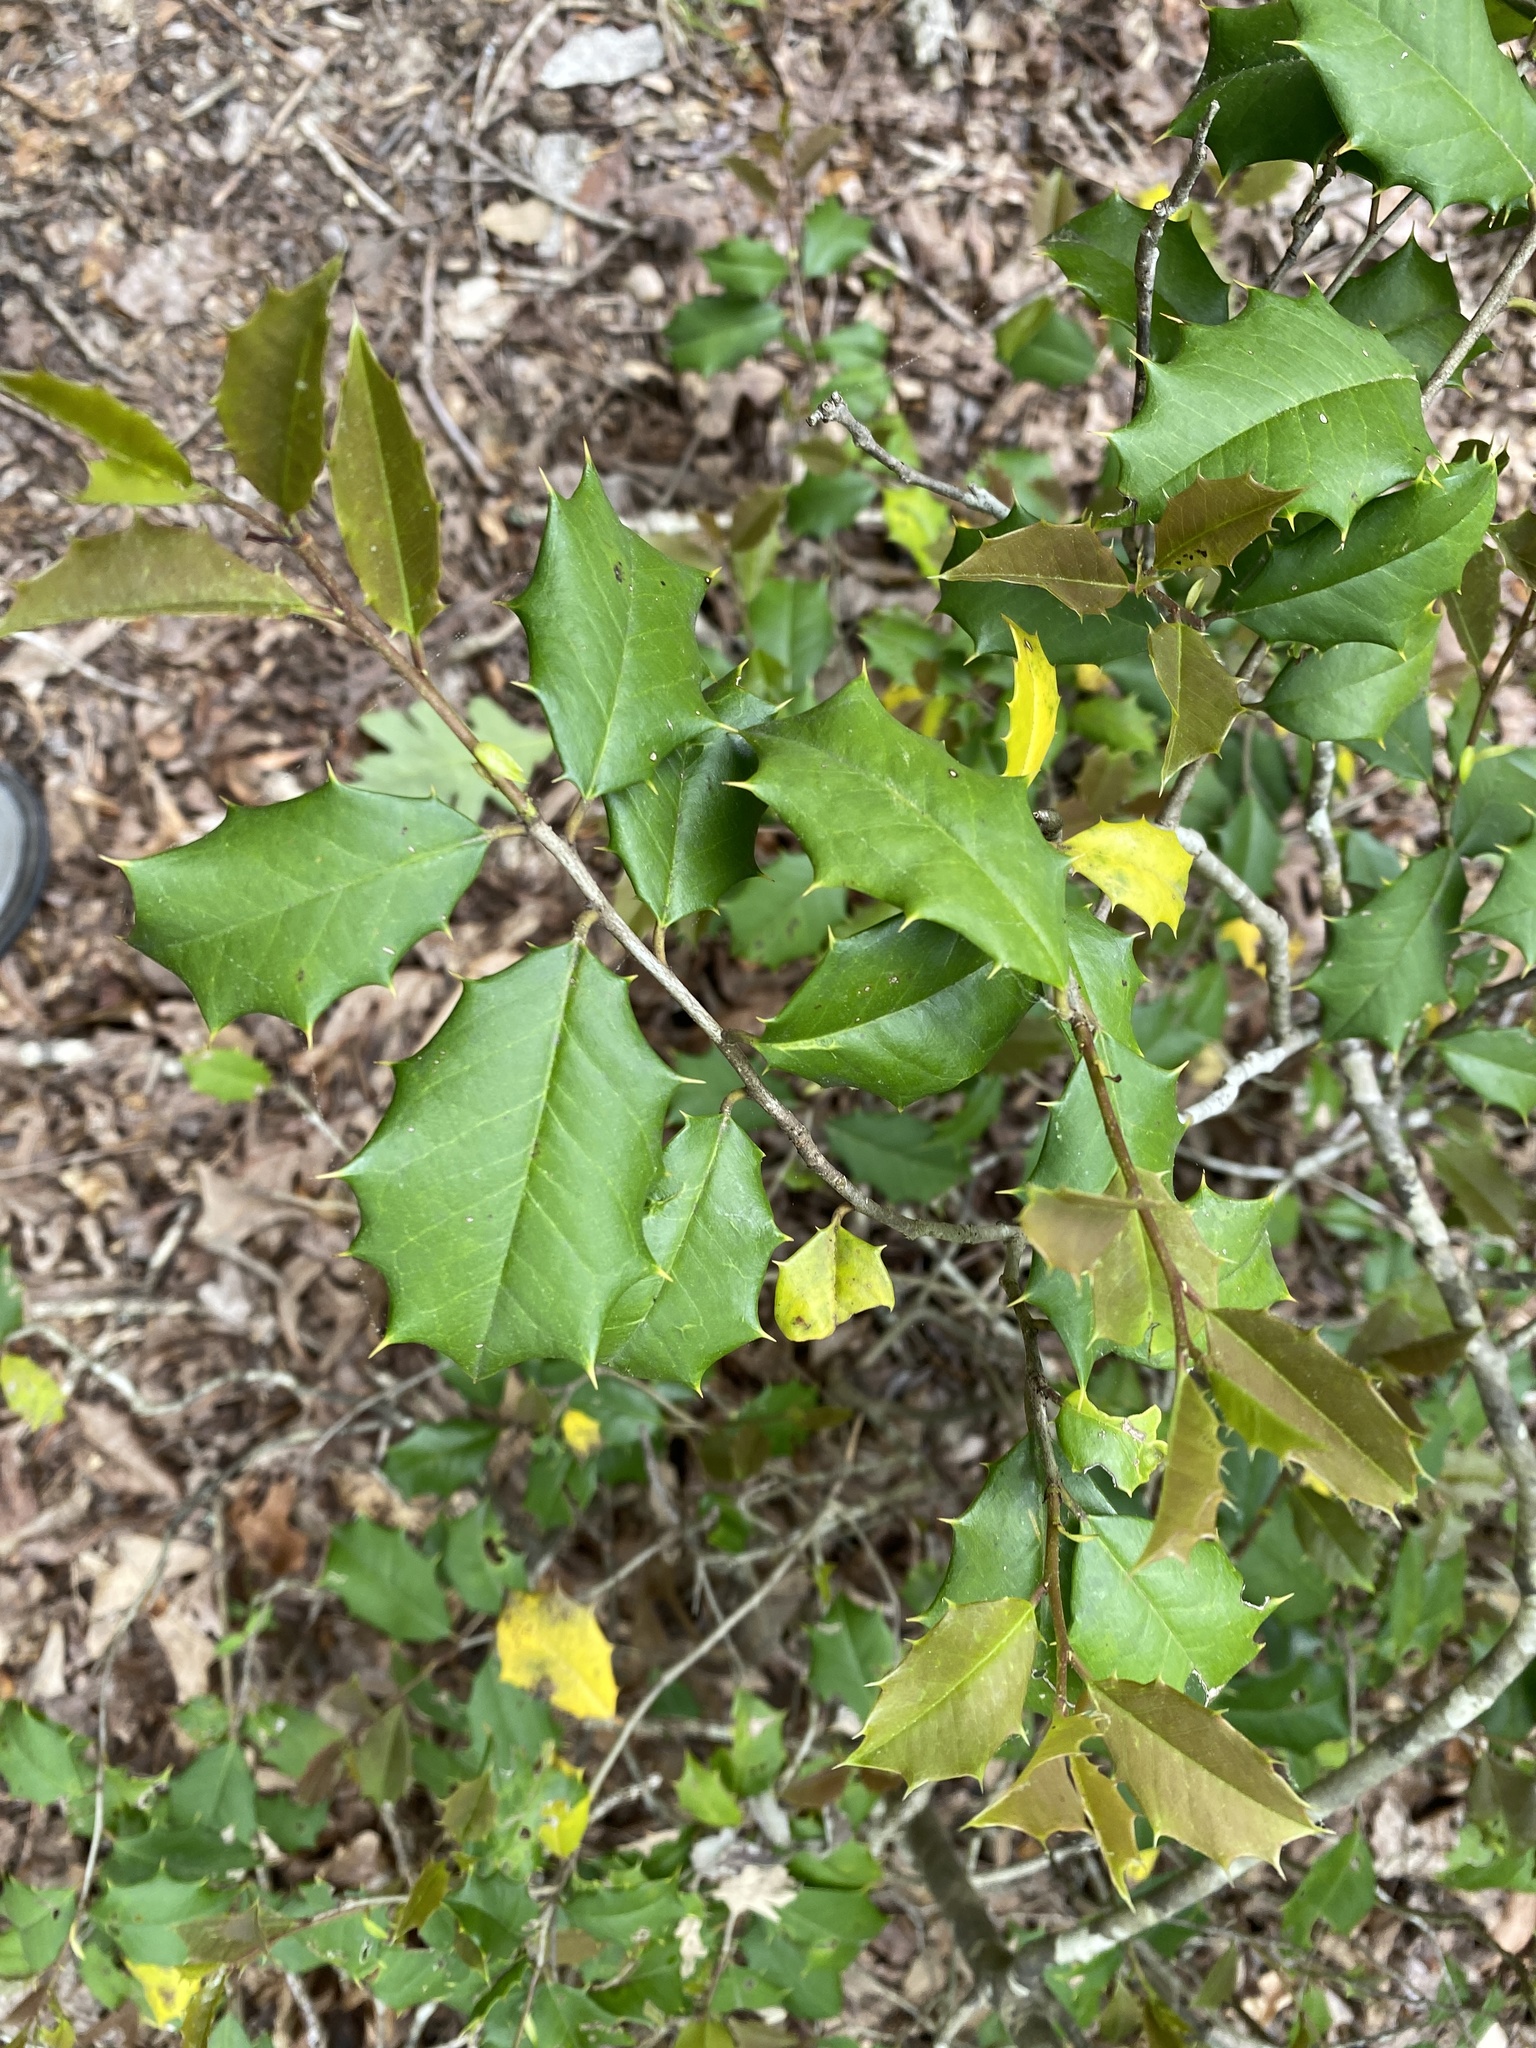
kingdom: Plantae
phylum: Tracheophyta
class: Magnoliopsida
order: Aquifoliales
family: Aquifoliaceae
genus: Ilex
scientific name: Ilex opaca
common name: American holly
